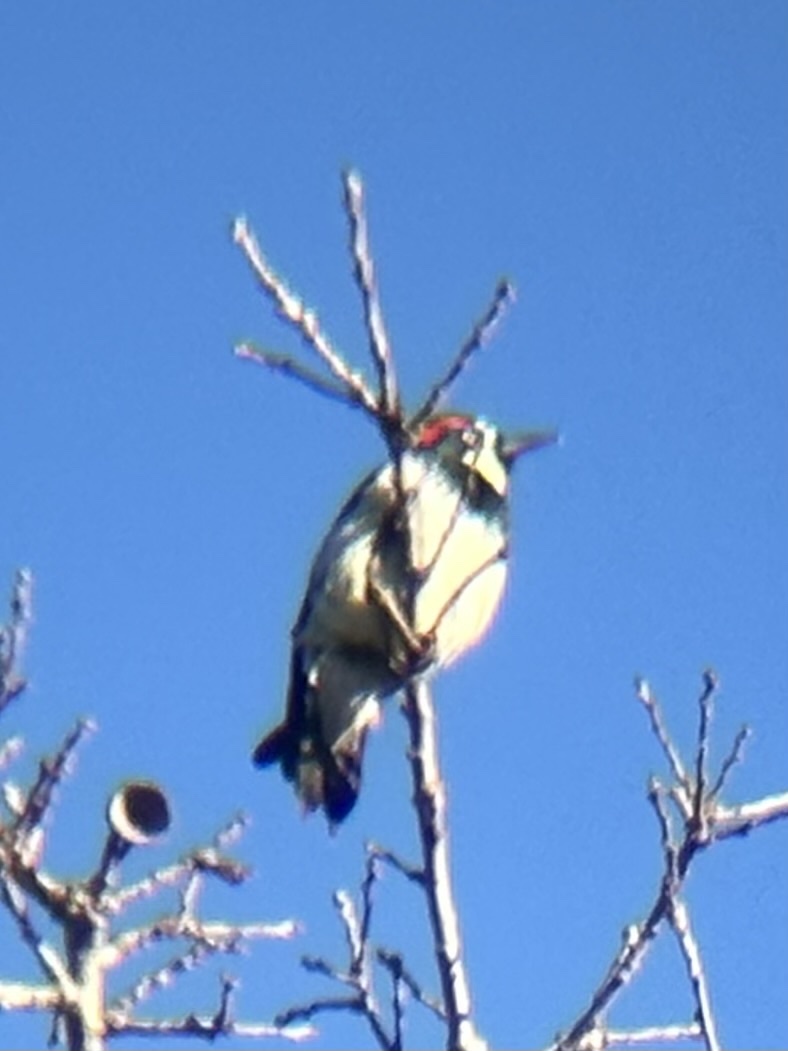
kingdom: Animalia
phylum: Chordata
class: Aves
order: Piciformes
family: Picidae
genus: Melanerpes
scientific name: Melanerpes formicivorus
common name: Acorn woodpecker
